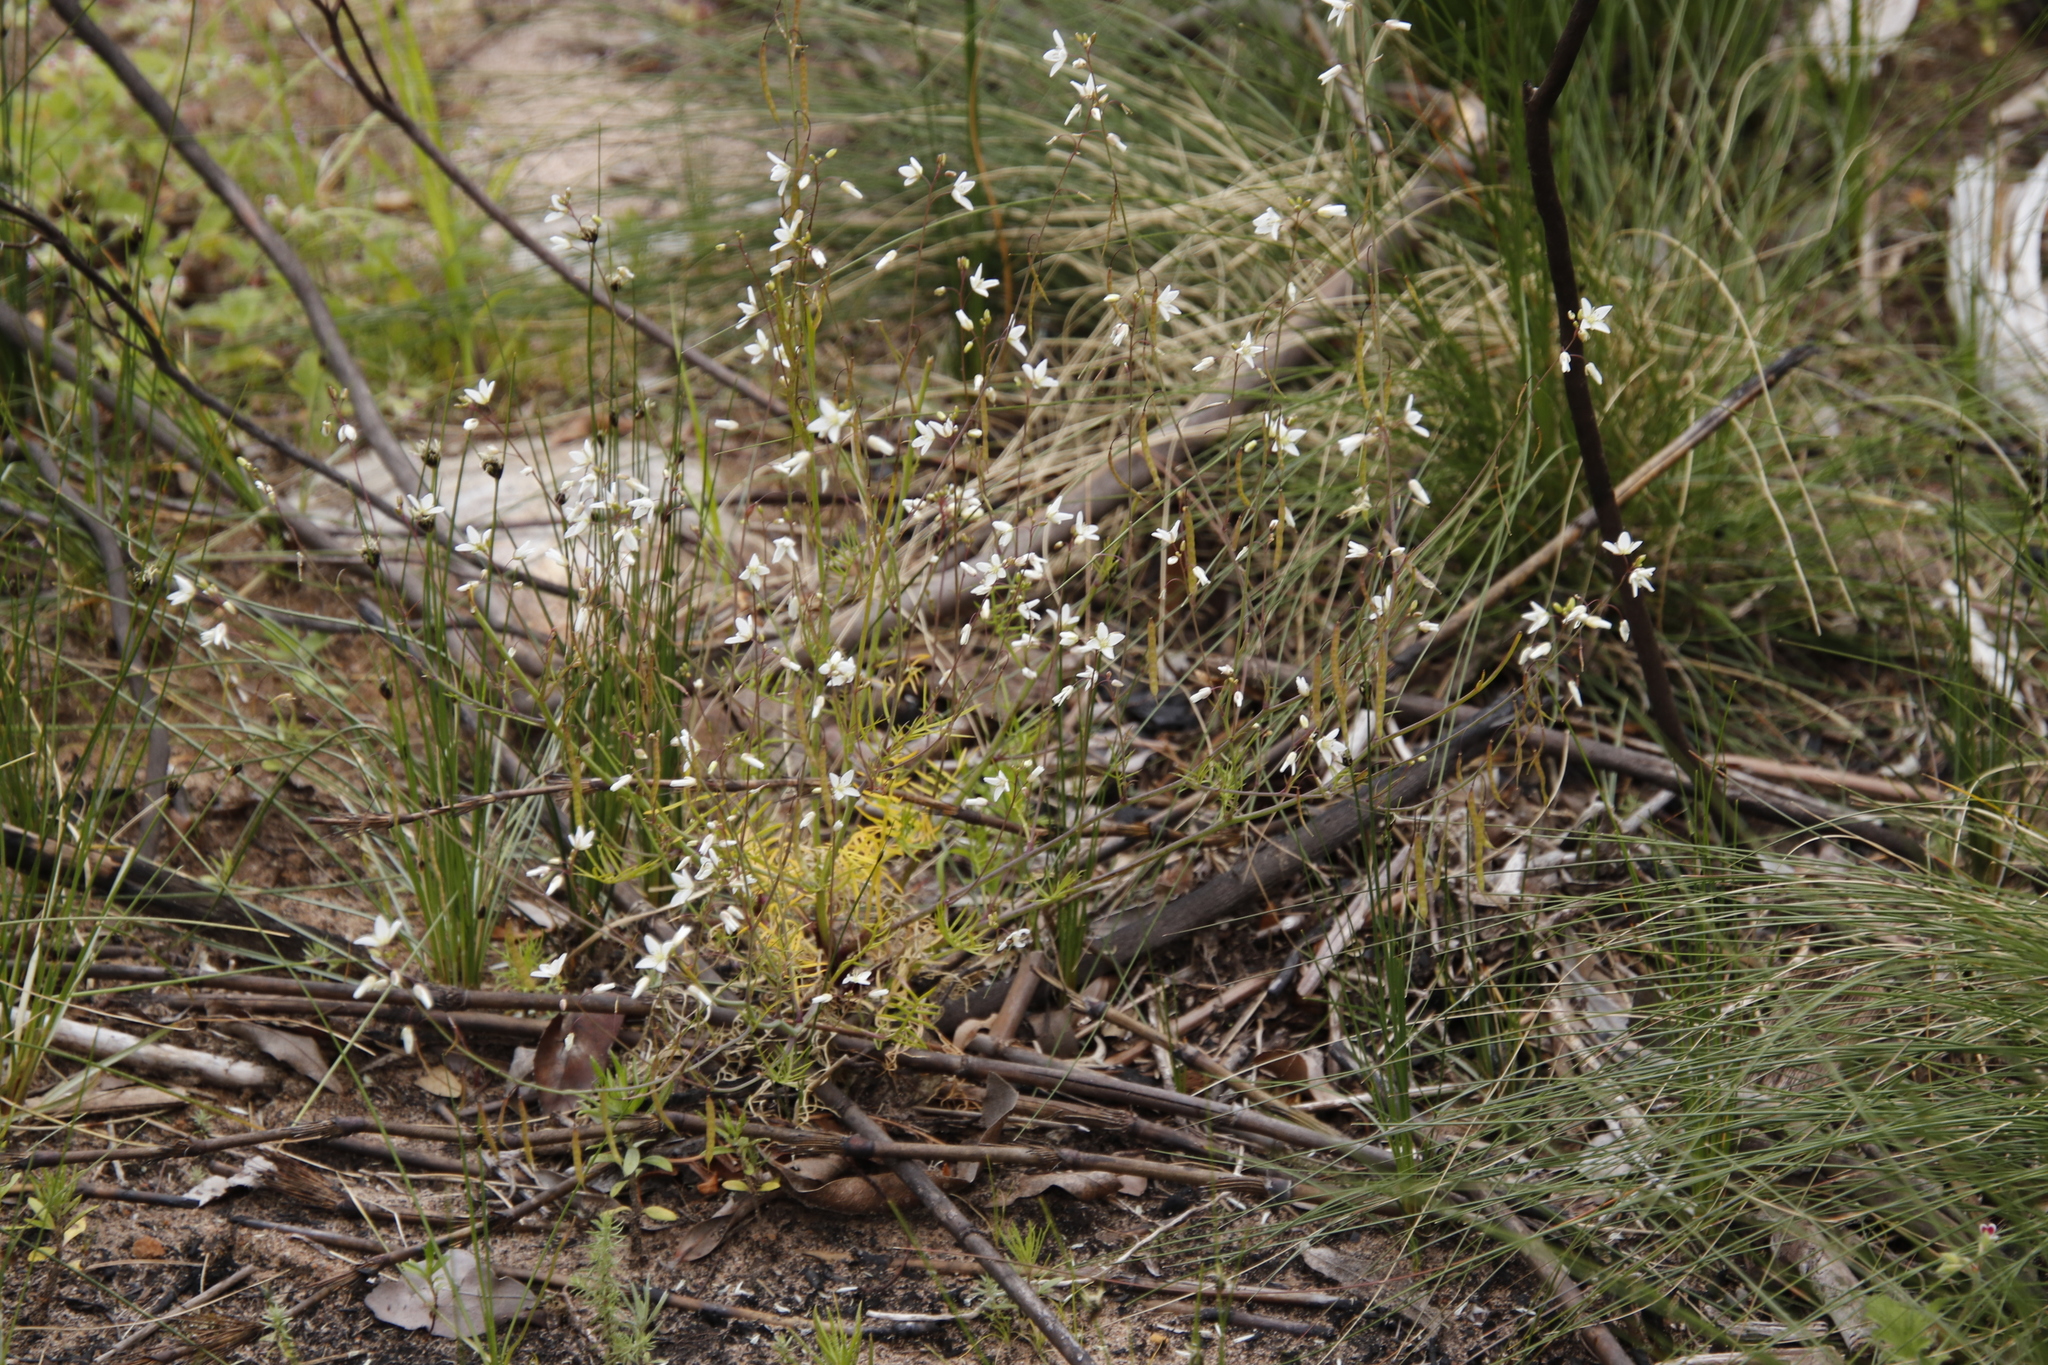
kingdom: Plantae
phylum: Tracheophyta
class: Magnoliopsida
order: Brassicales
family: Brassicaceae
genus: Heliophila
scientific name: Heliophila meyeri
